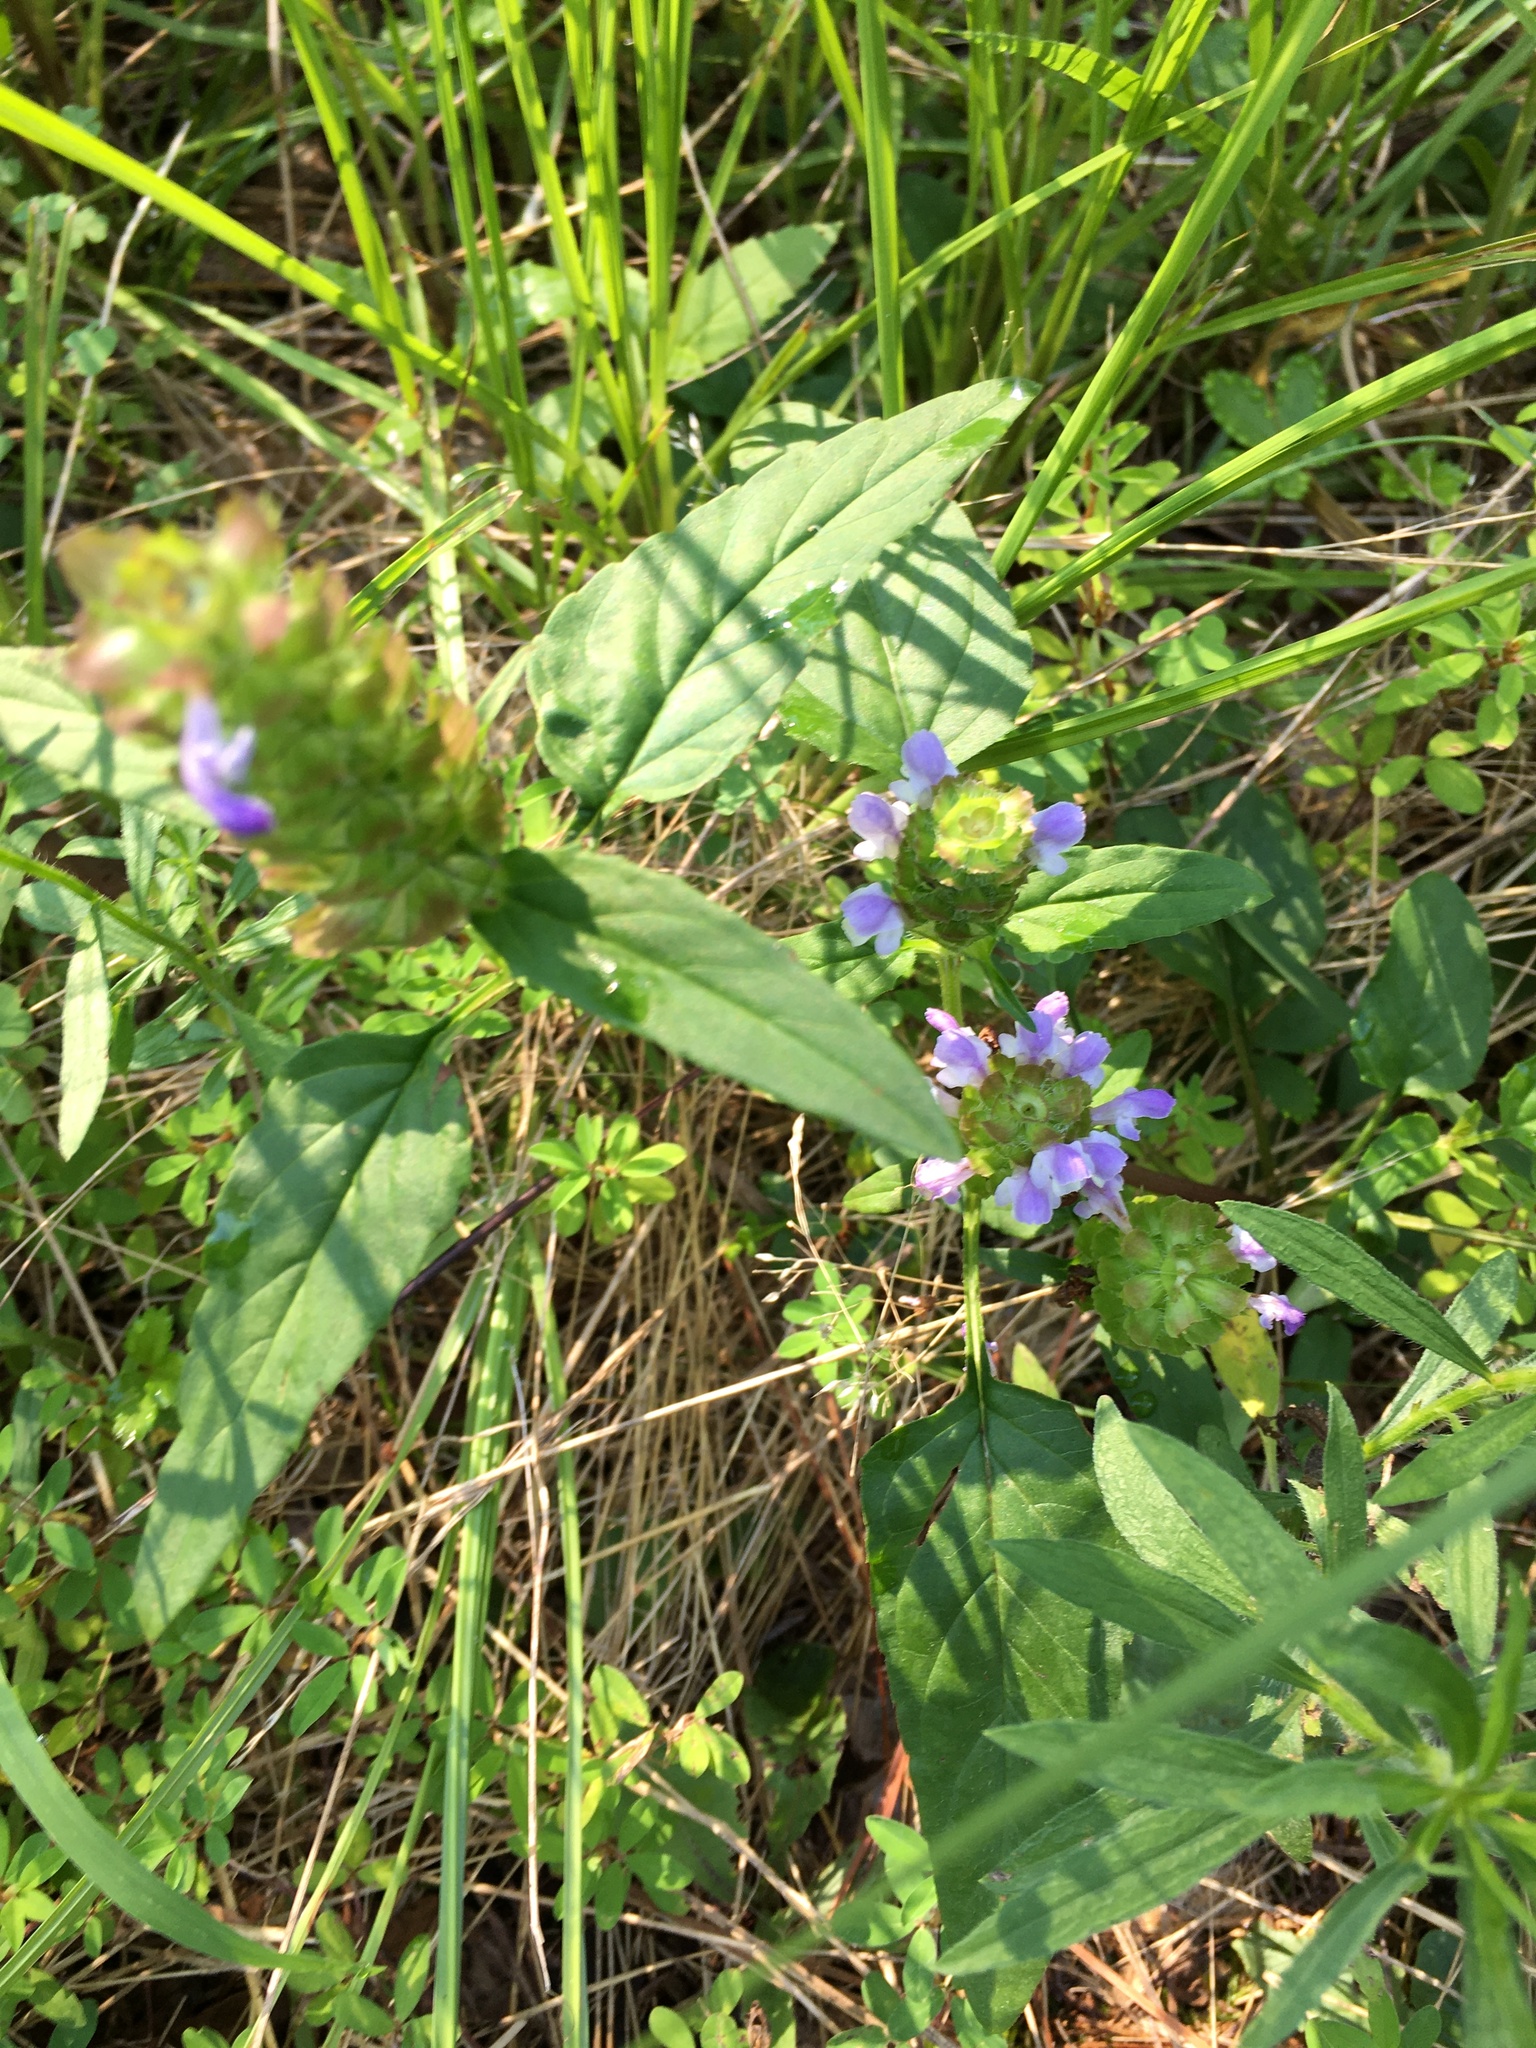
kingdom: Plantae
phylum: Tracheophyta
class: Magnoliopsida
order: Lamiales
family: Lamiaceae
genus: Prunella
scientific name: Prunella vulgaris
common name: Heal-all
